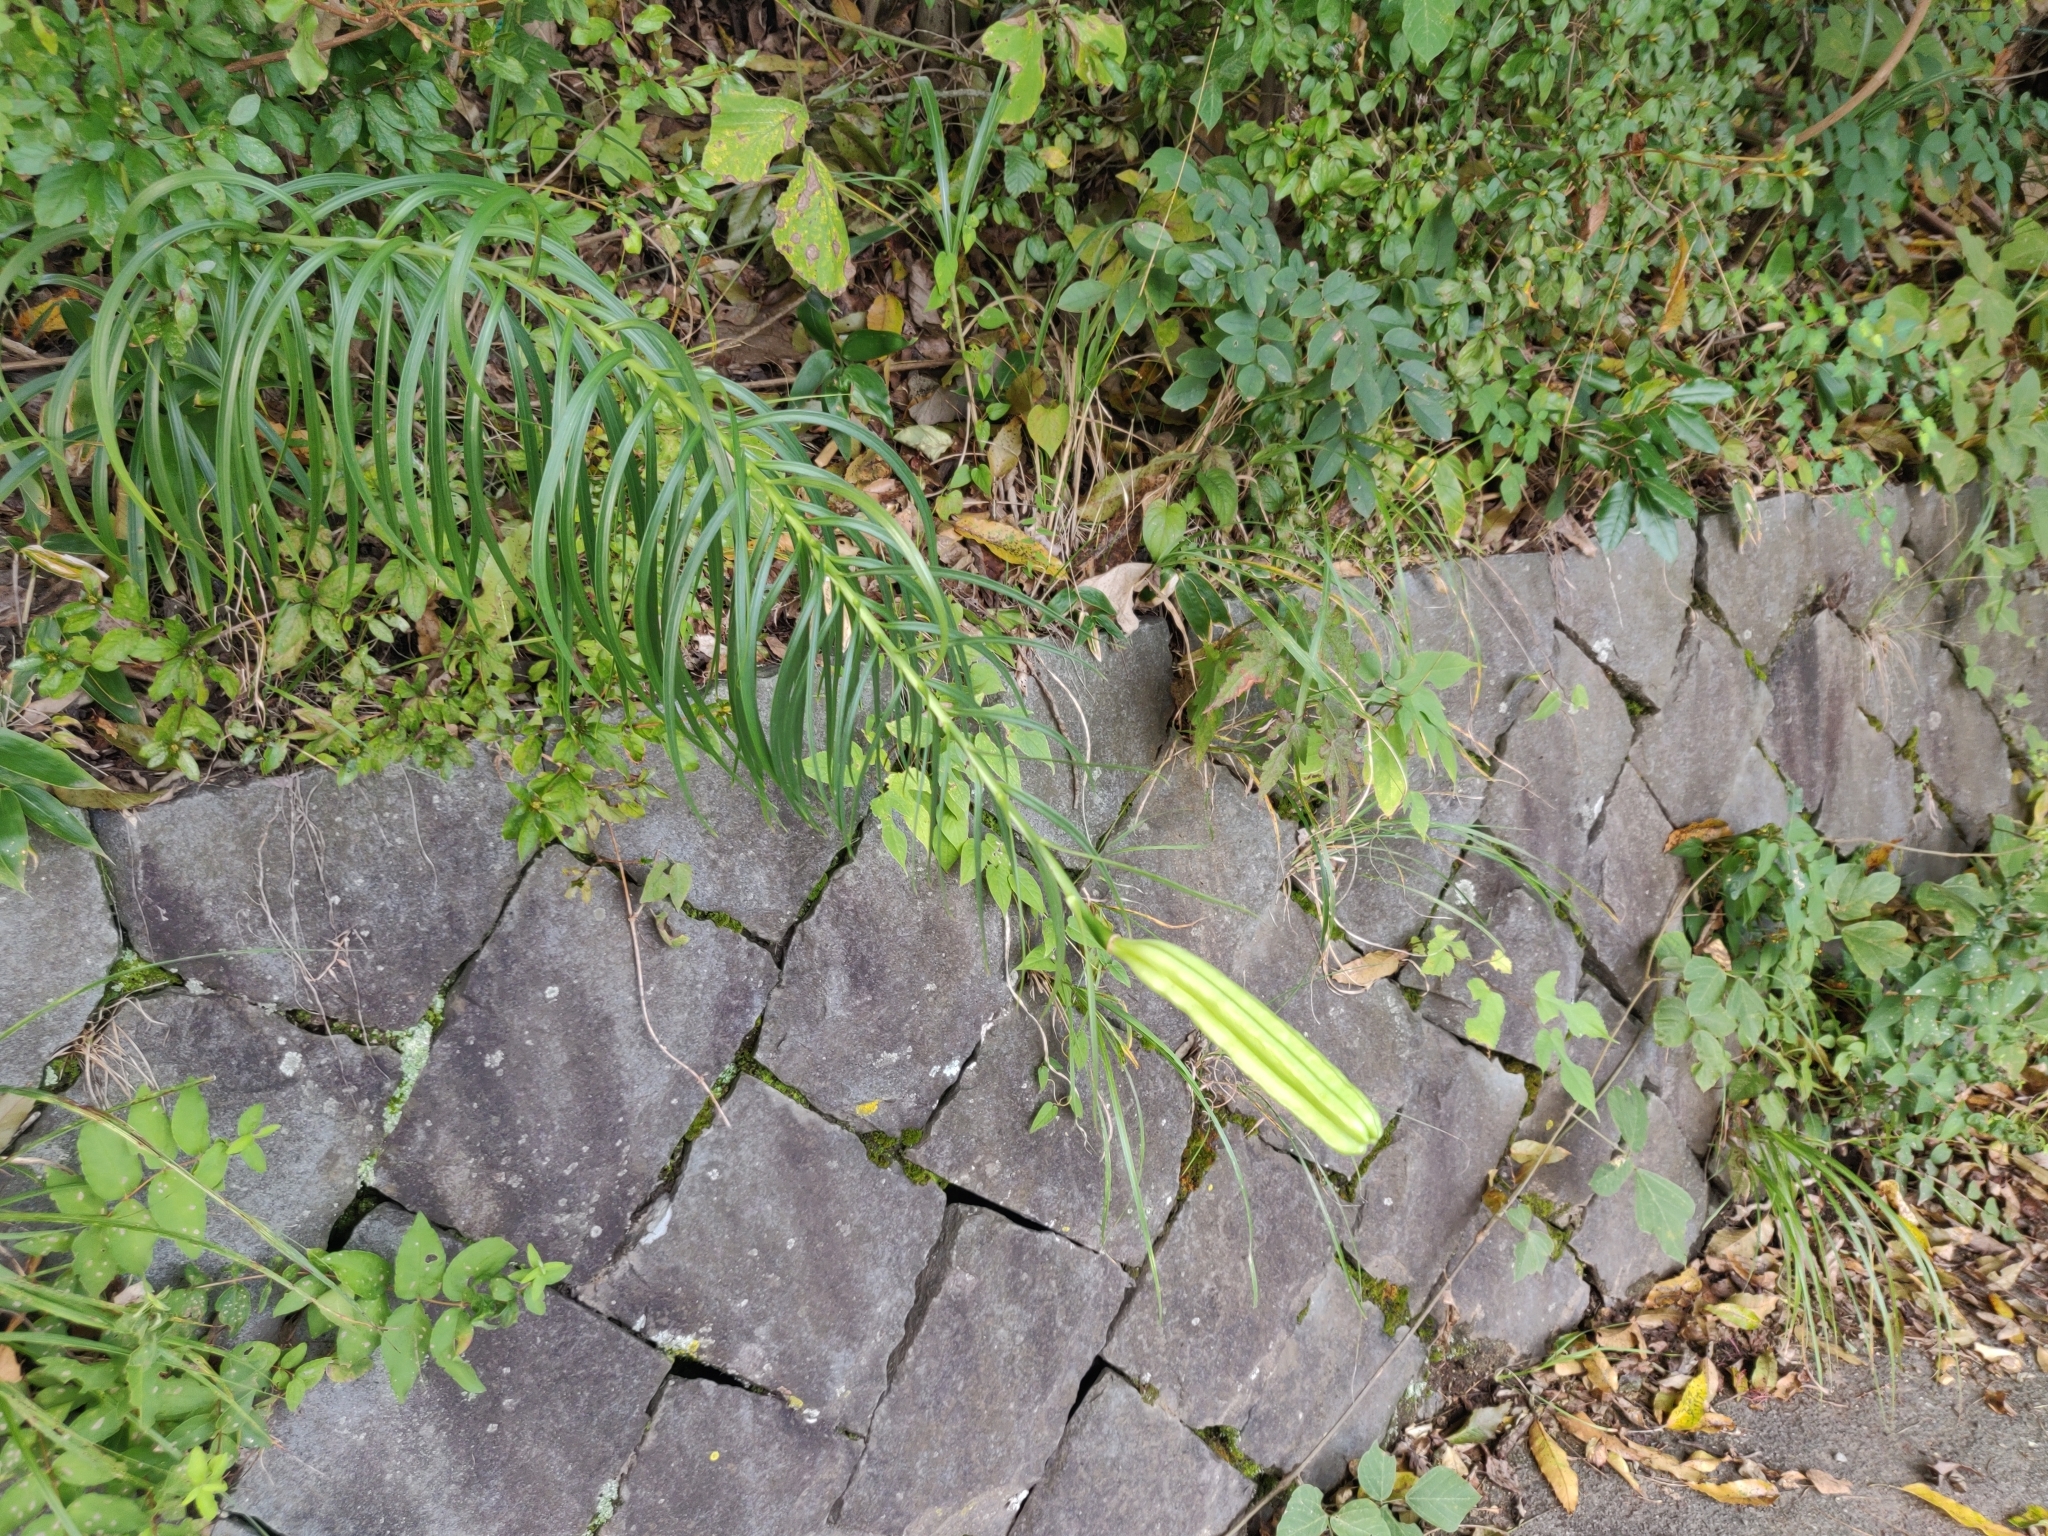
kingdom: Plantae
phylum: Tracheophyta
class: Liliopsida
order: Liliales
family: Liliaceae
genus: Lilium
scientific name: Lilium formosanum
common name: Formosa lily
